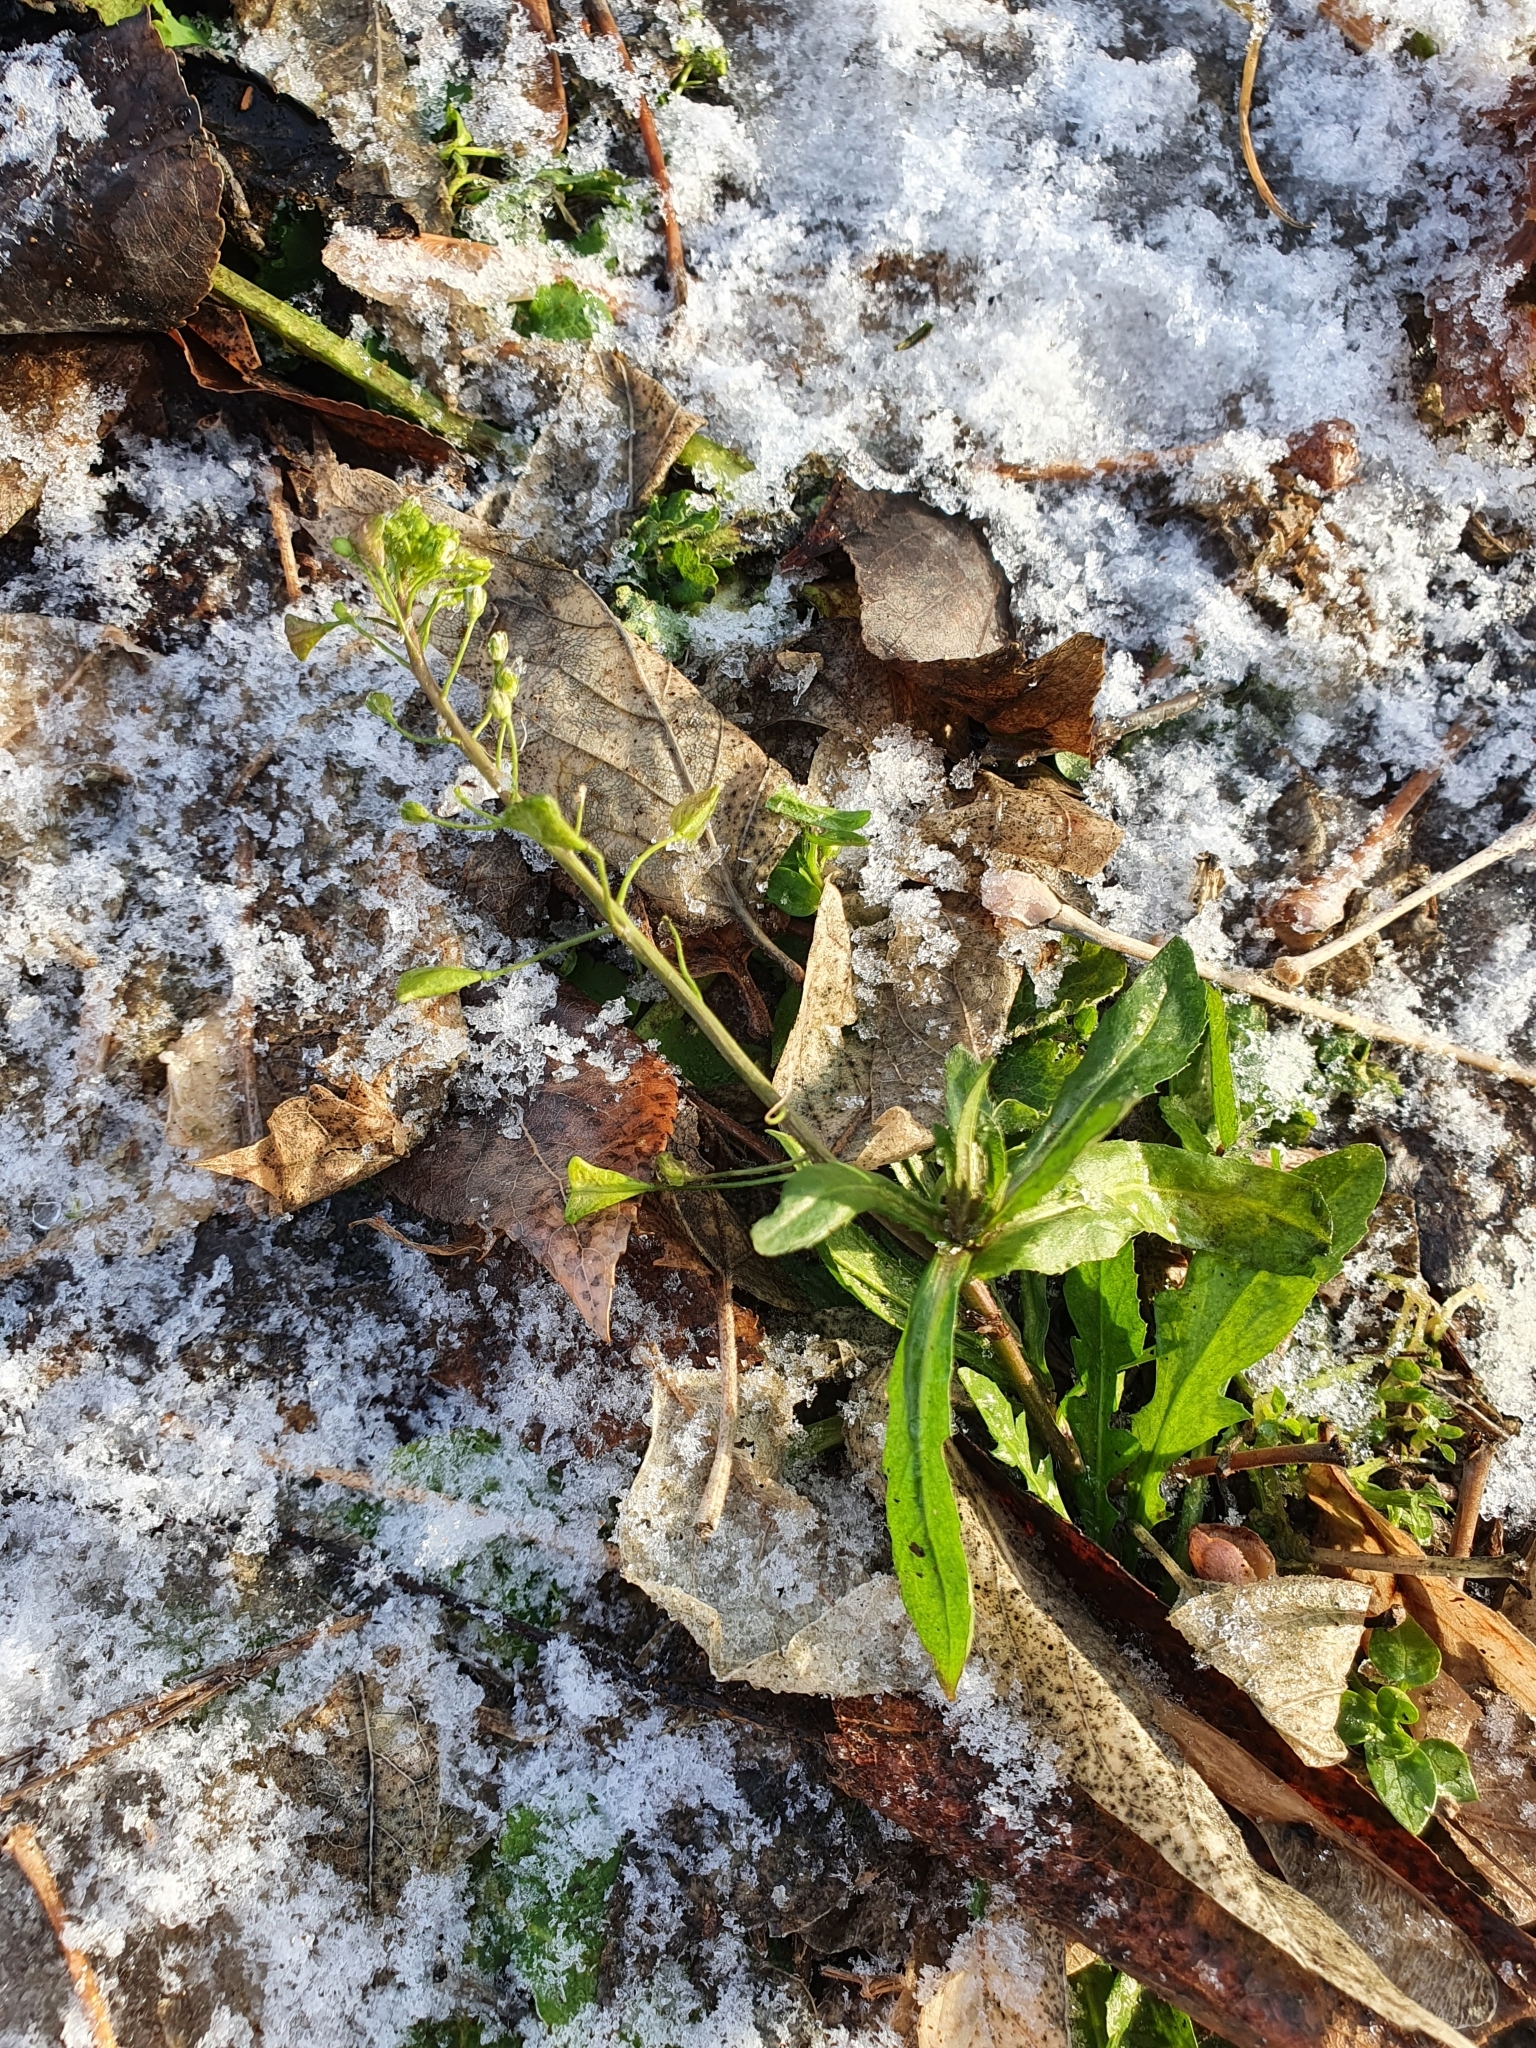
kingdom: Plantae
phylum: Tracheophyta
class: Magnoliopsida
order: Brassicales
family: Brassicaceae
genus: Capsella
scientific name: Capsella bursa-pastoris
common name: Shepherd's purse
